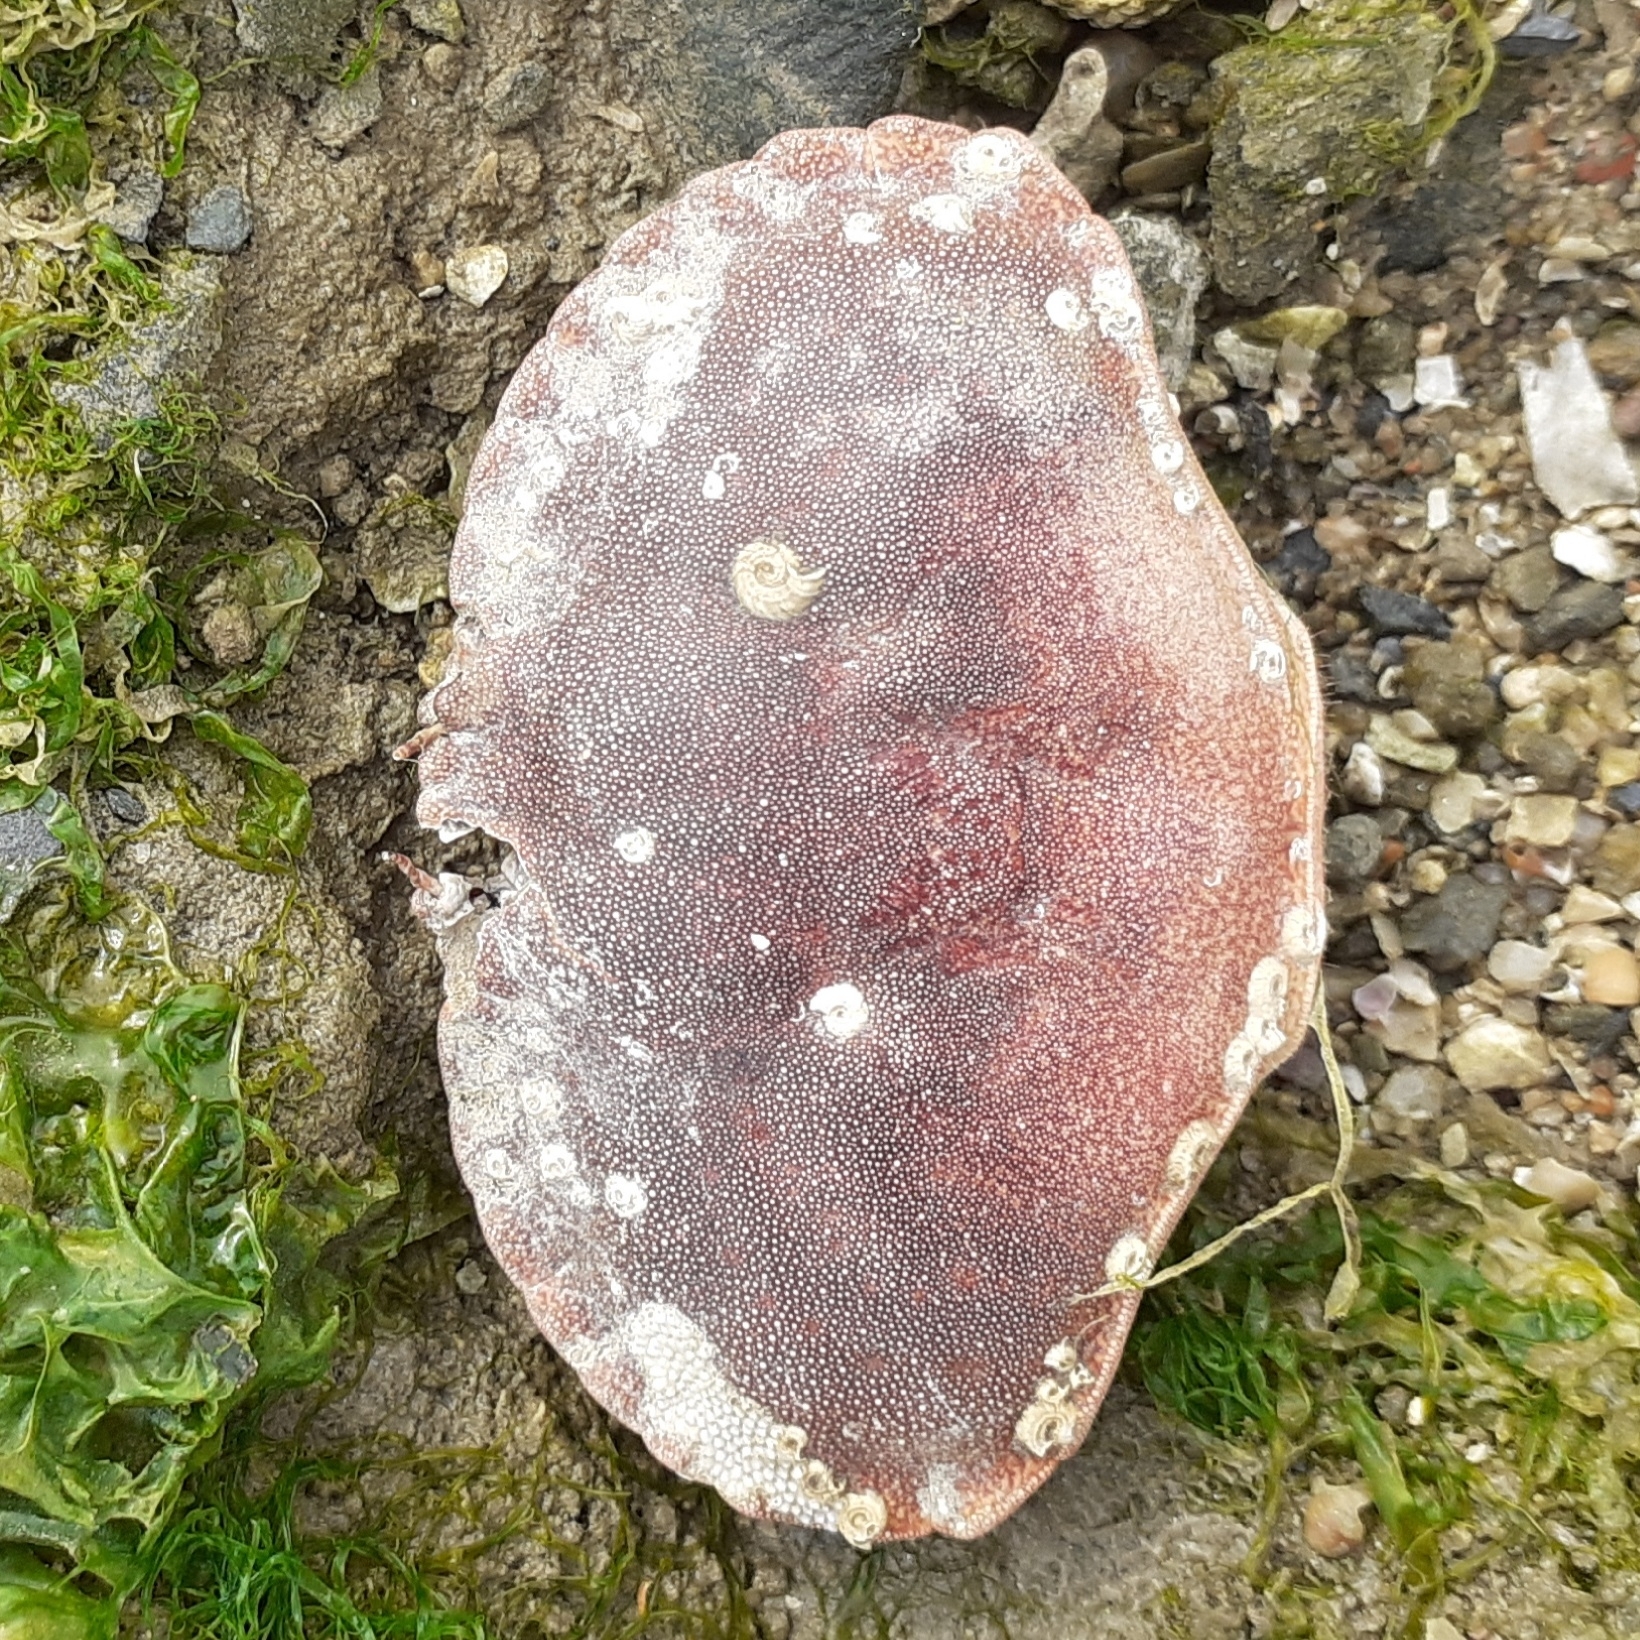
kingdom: Animalia
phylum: Arthropoda
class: Malacostraca
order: Decapoda
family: Cancridae
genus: Cancer
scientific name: Cancer pagurus
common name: Edible crab
